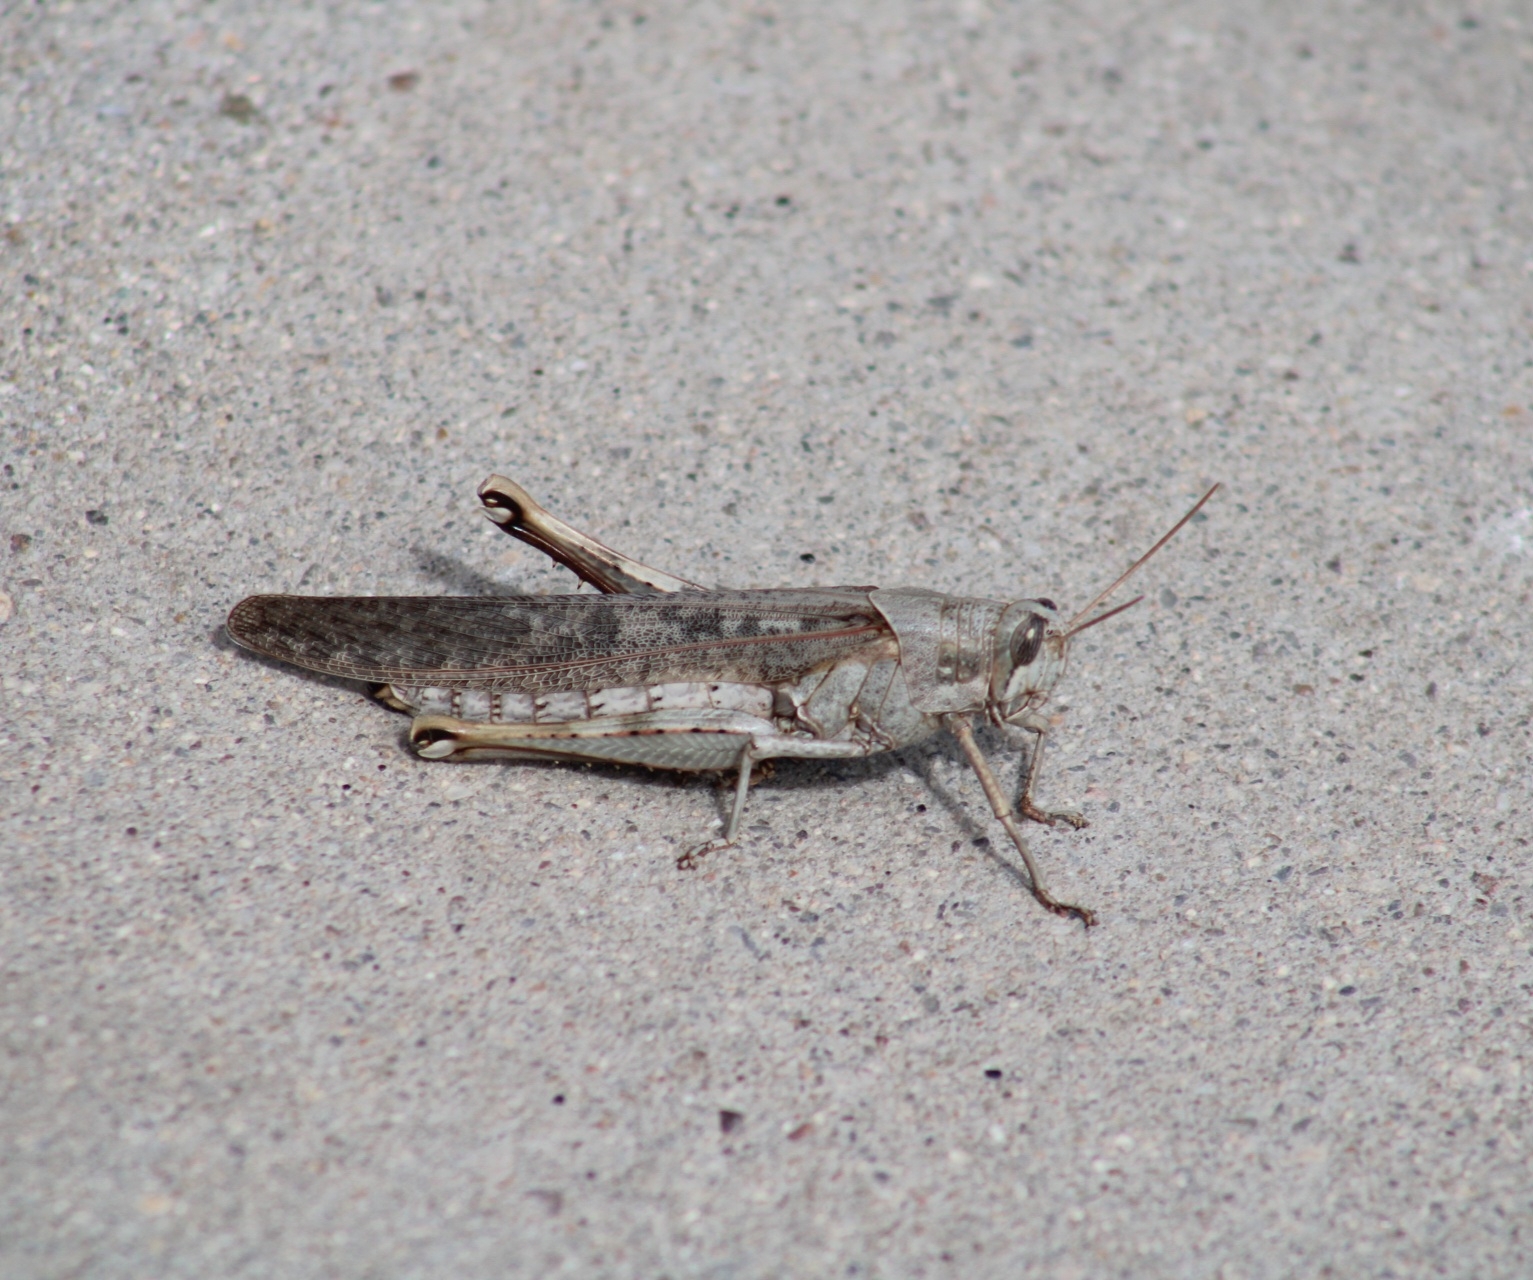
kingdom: Animalia
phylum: Arthropoda
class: Insecta
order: Orthoptera
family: Acrididae
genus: Schistocerca
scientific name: Schistocerca nitens
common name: Vagrant grasshopper
